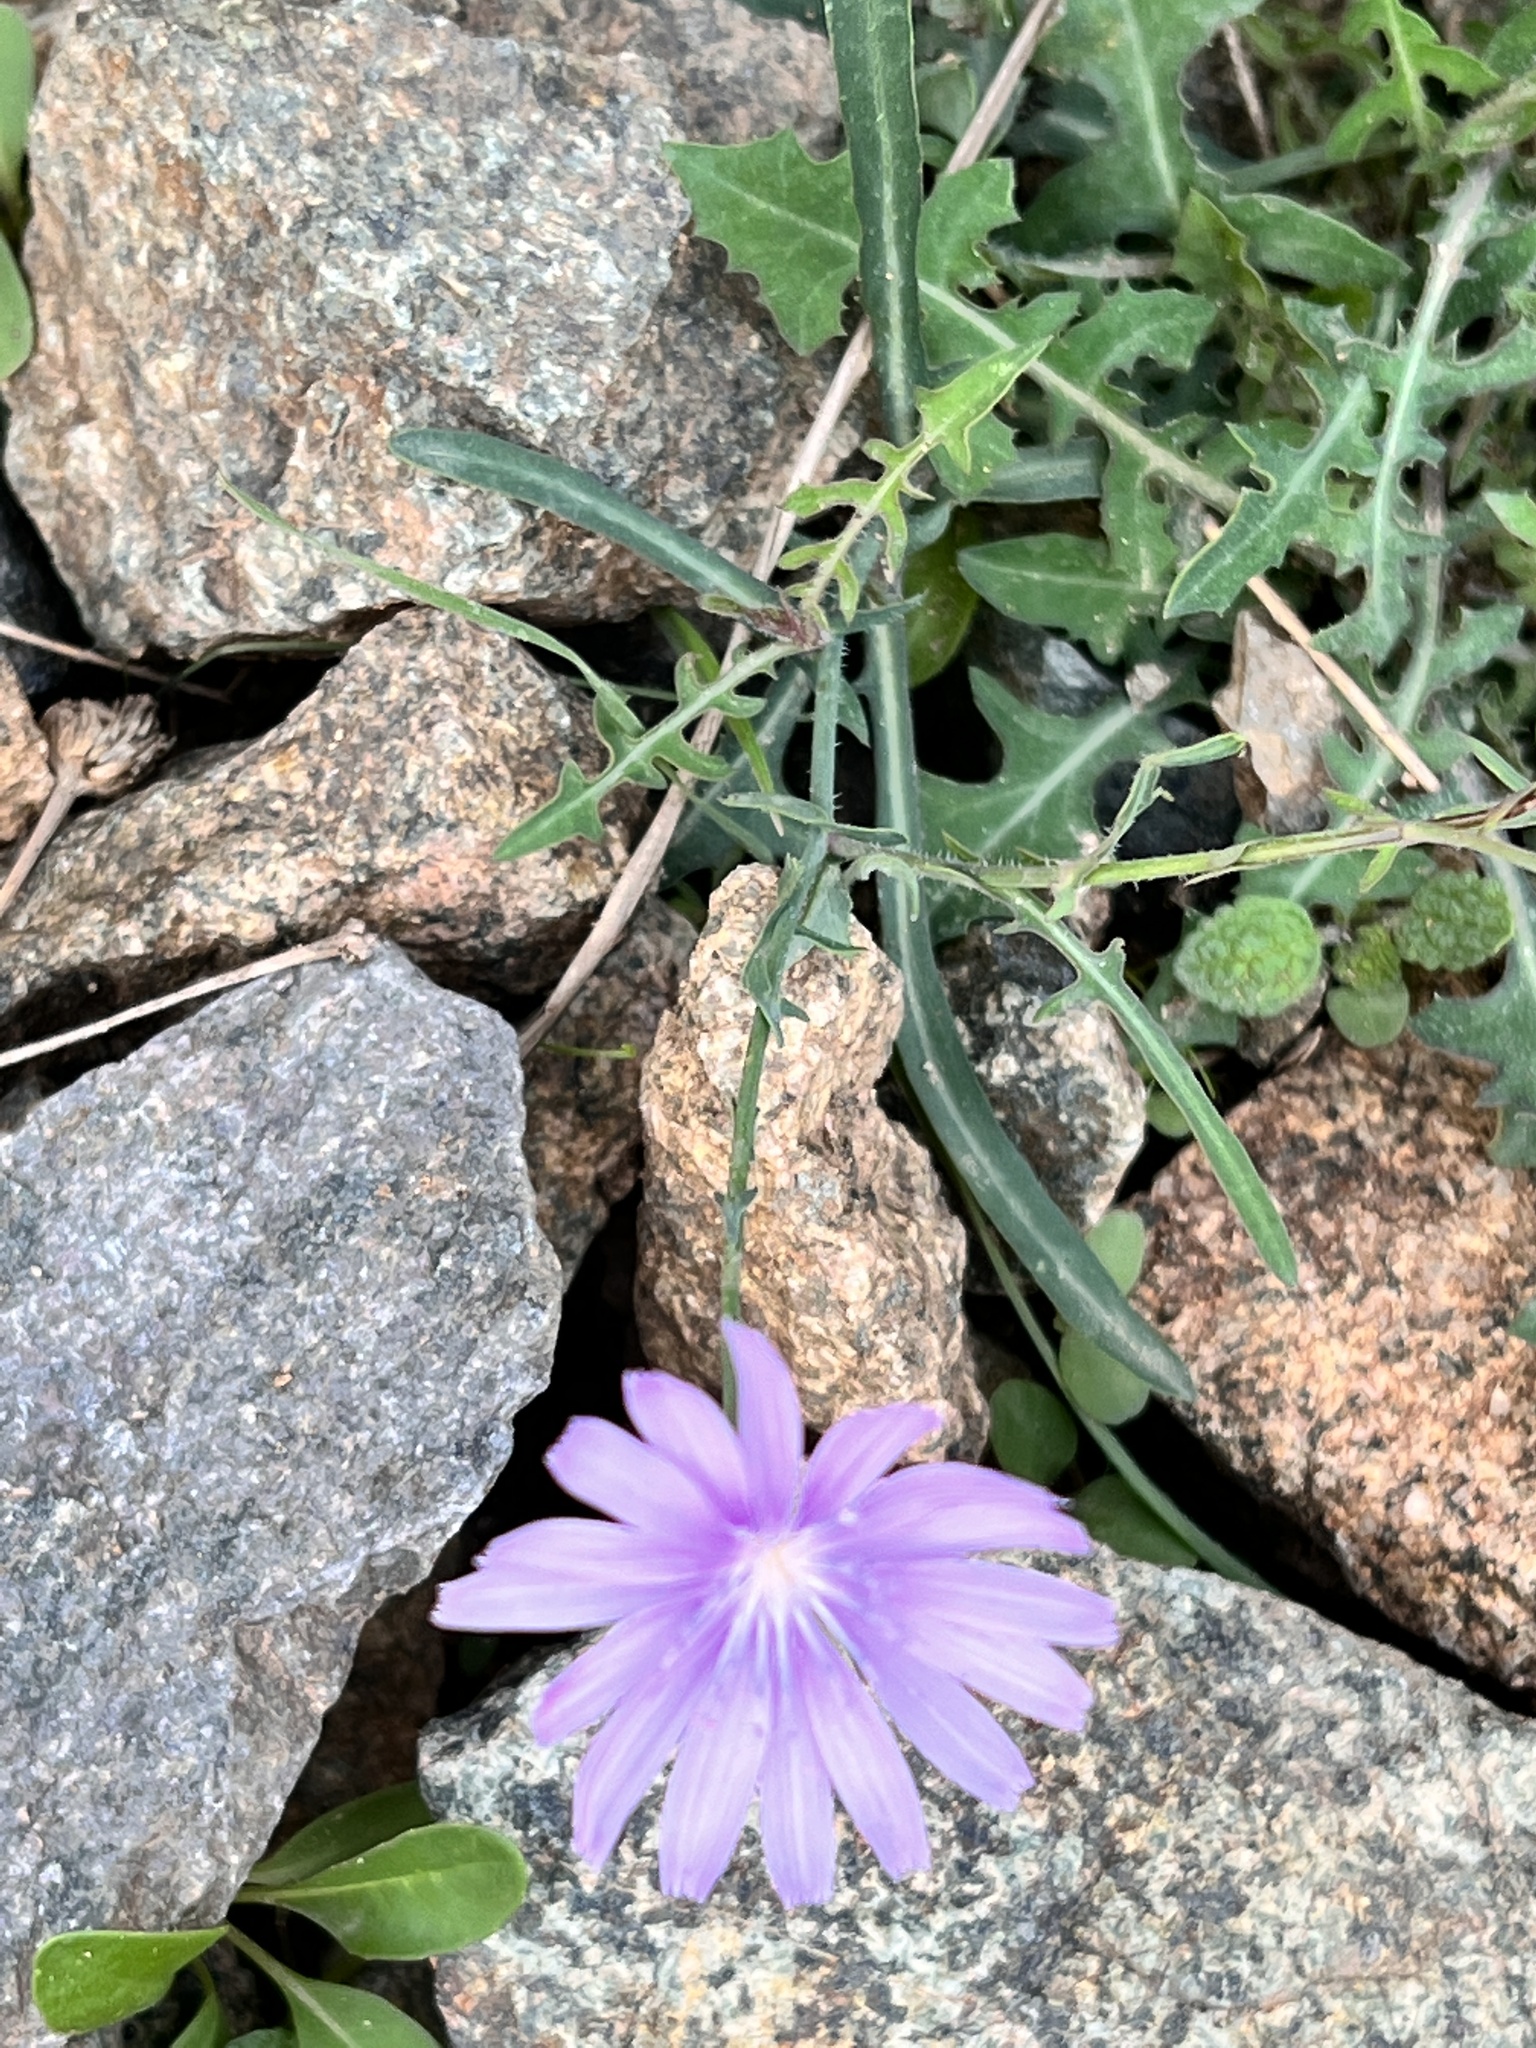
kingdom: Plantae
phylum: Tracheophyta
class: Magnoliopsida
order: Asterales
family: Asteraceae
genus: Lactuca
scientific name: Lactuca tenerrima
